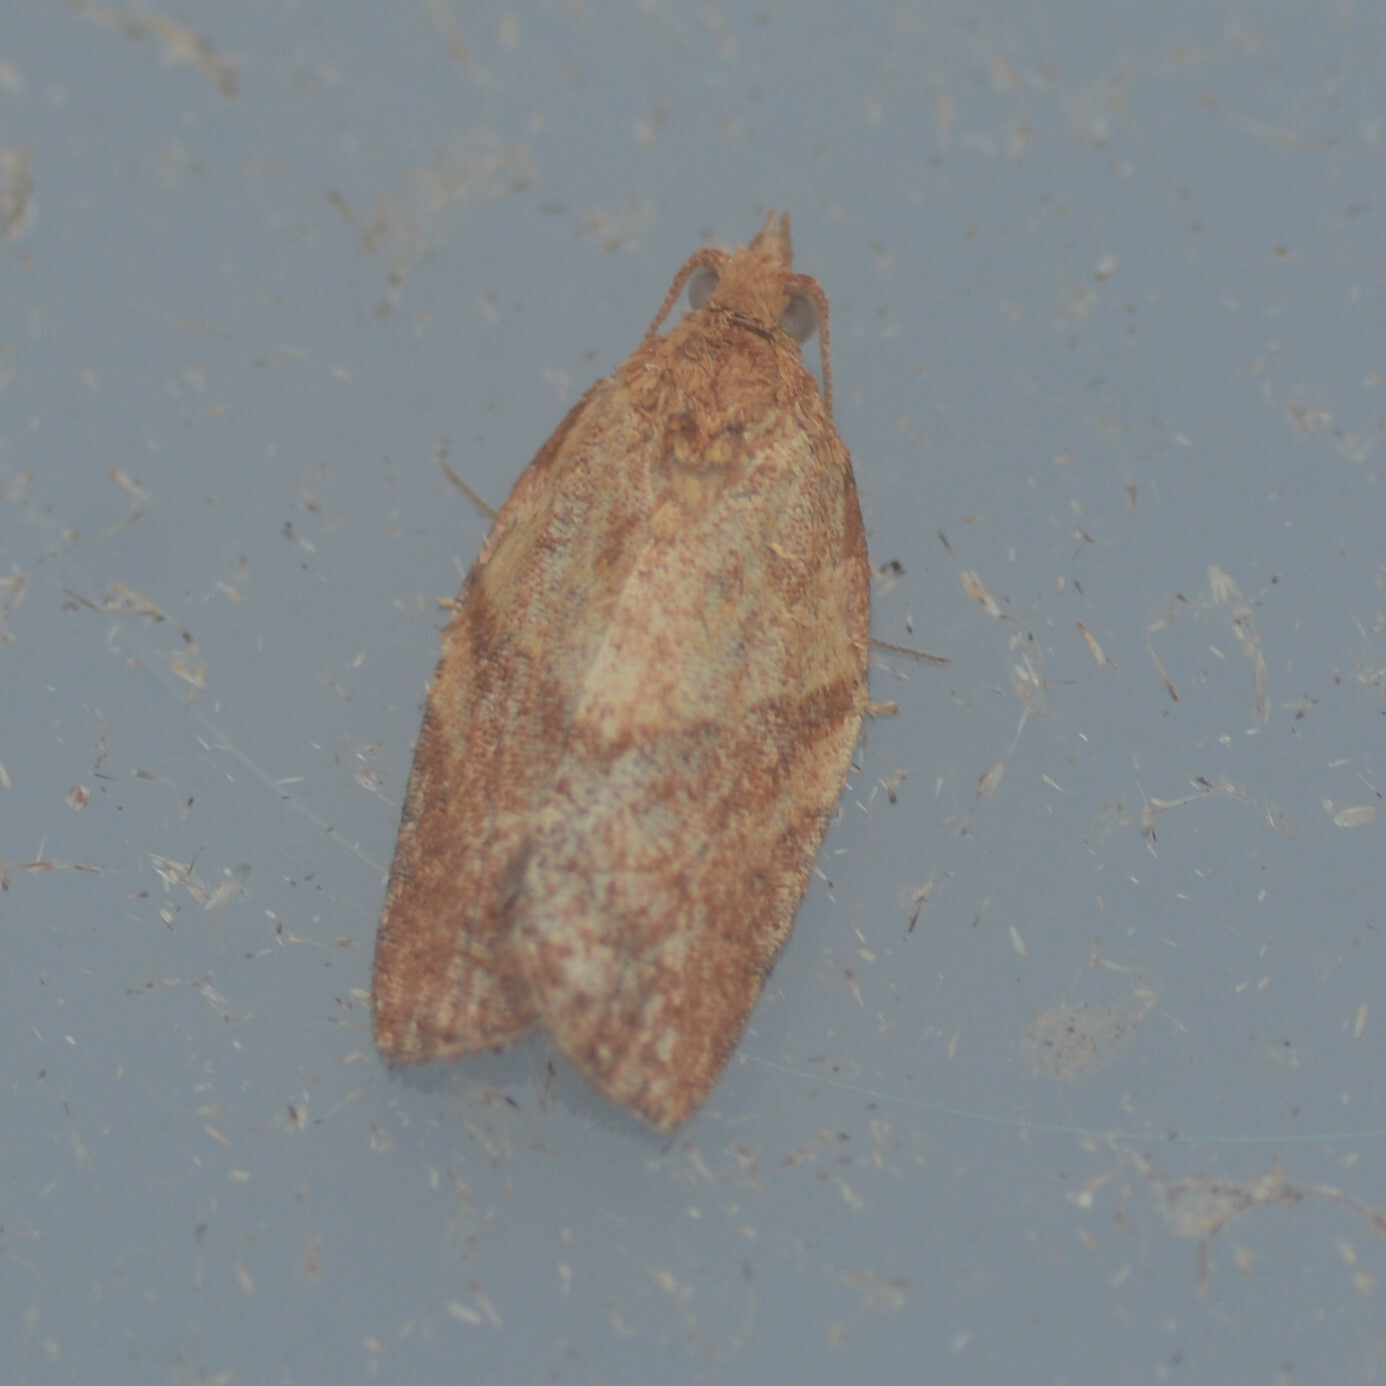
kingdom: Animalia
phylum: Arthropoda
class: Insecta
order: Lepidoptera
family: Tortricidae
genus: Epiphyas
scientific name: Epiphyas postvittana
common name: Light brown apple moth
